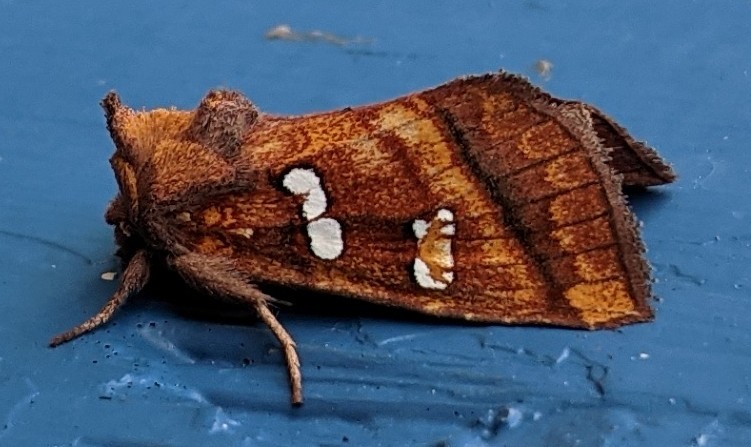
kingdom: Animalia
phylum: Arthropoda
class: Insecta
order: Lepidoptera
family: Noctuidae
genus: Papaipema
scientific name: Papaipema pterisii
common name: Bracken borer moth
